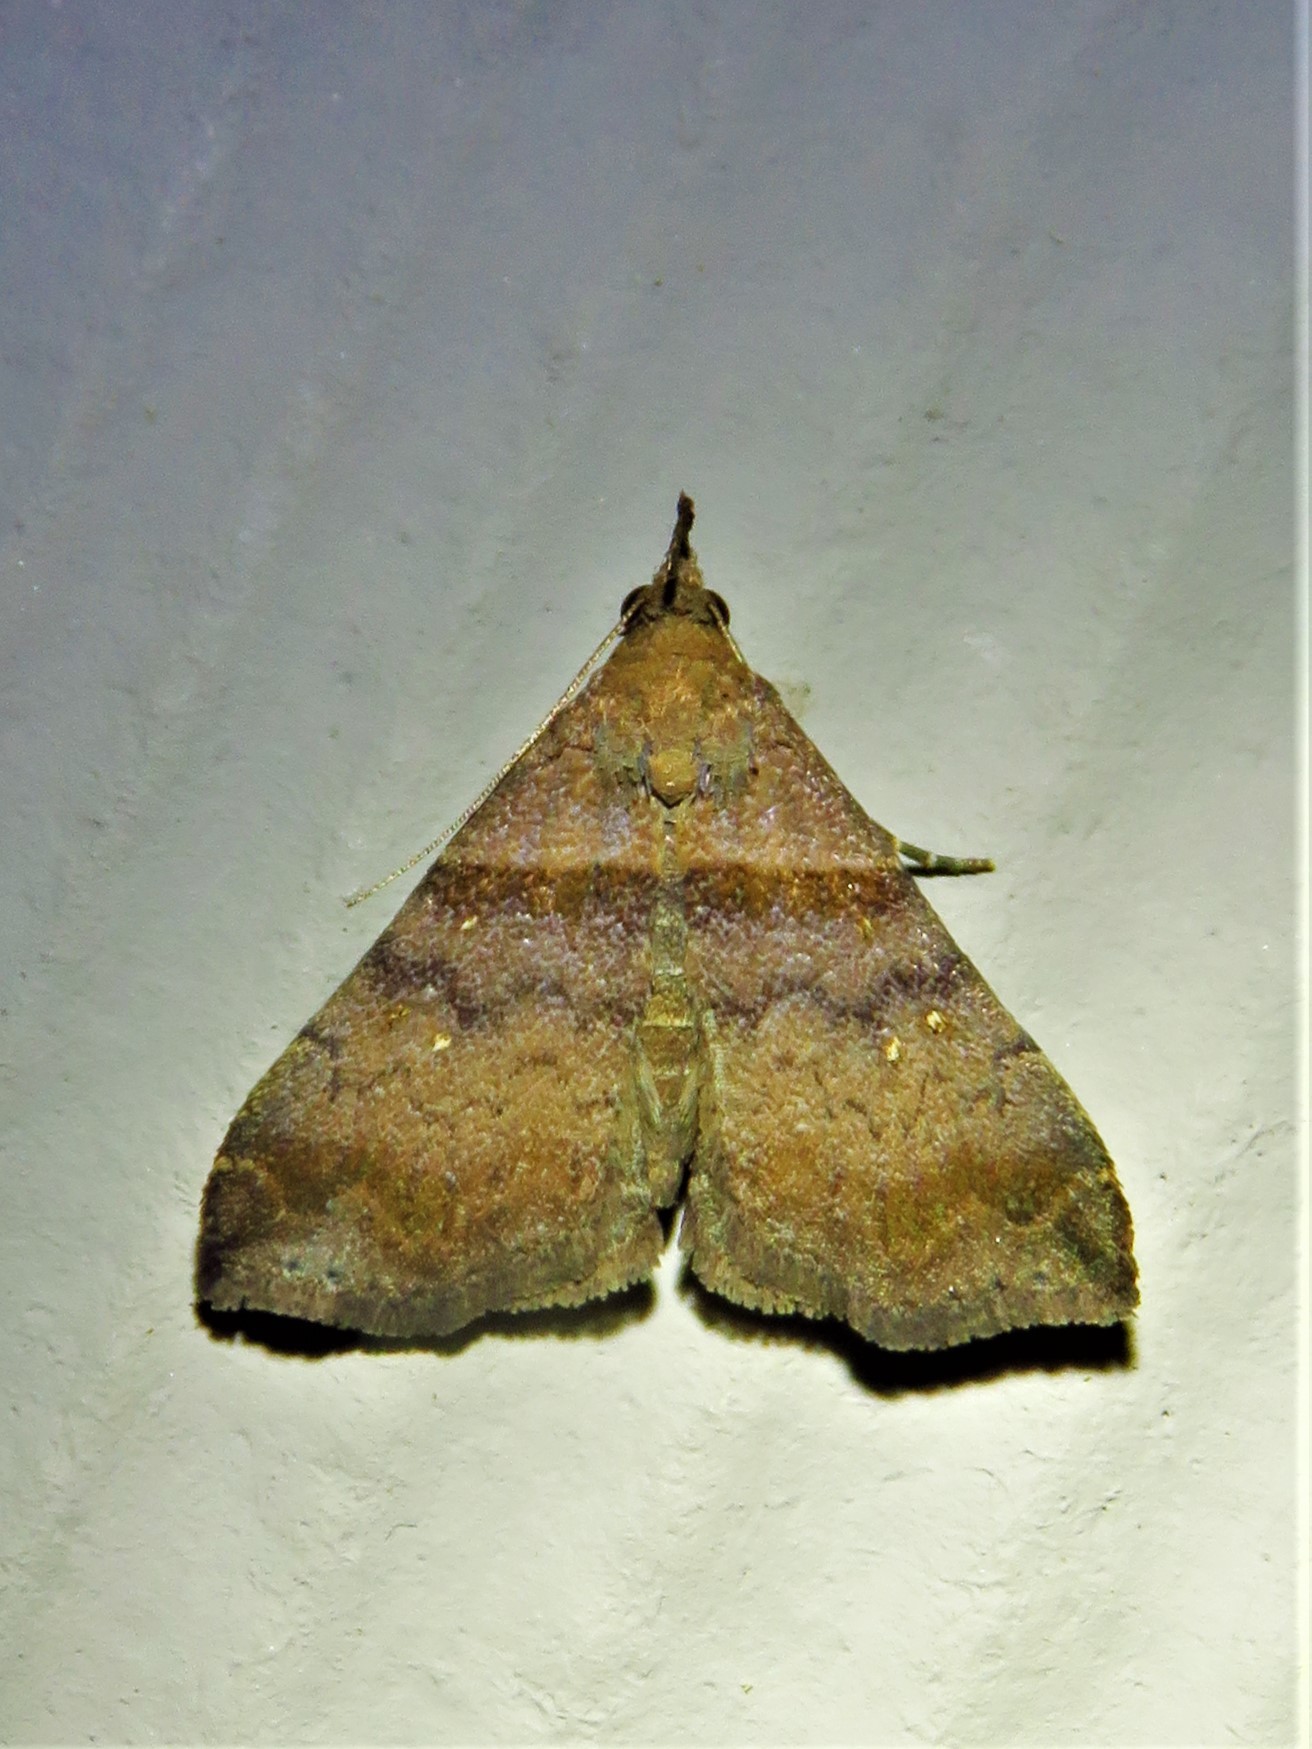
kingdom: Animalia
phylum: Arthropoda
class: Insecta
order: Lepidoptera
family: Erebidae
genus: Lascoria
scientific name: Lascoria ambigualis
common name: Ambiguous moth
